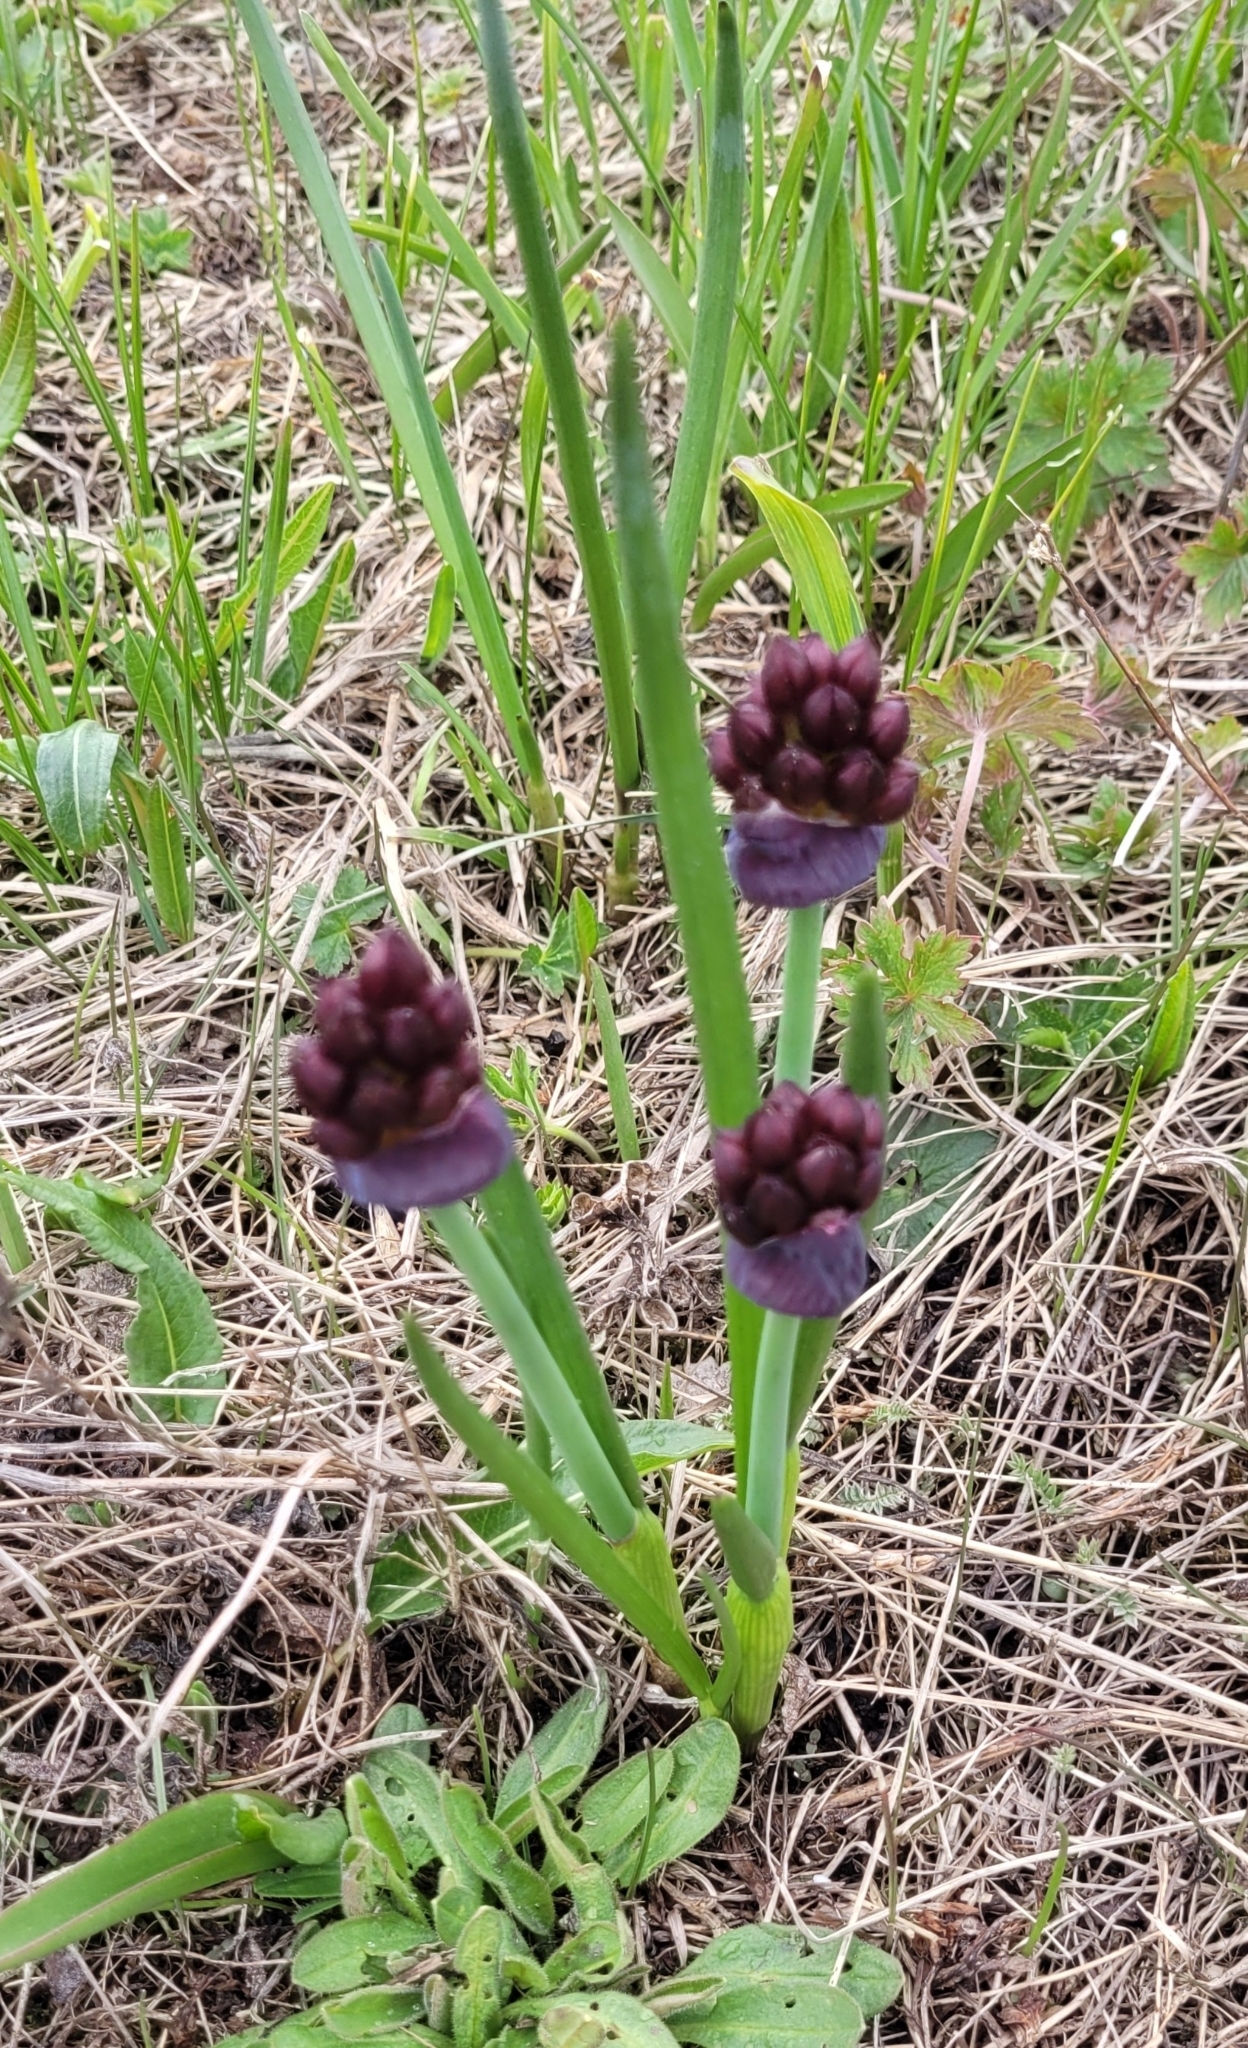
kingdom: Plantae
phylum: Tracheophyta
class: Liliopsida
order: Asparagales
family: Amaryllidaceae
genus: Allium
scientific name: Allium atrosanguineum
